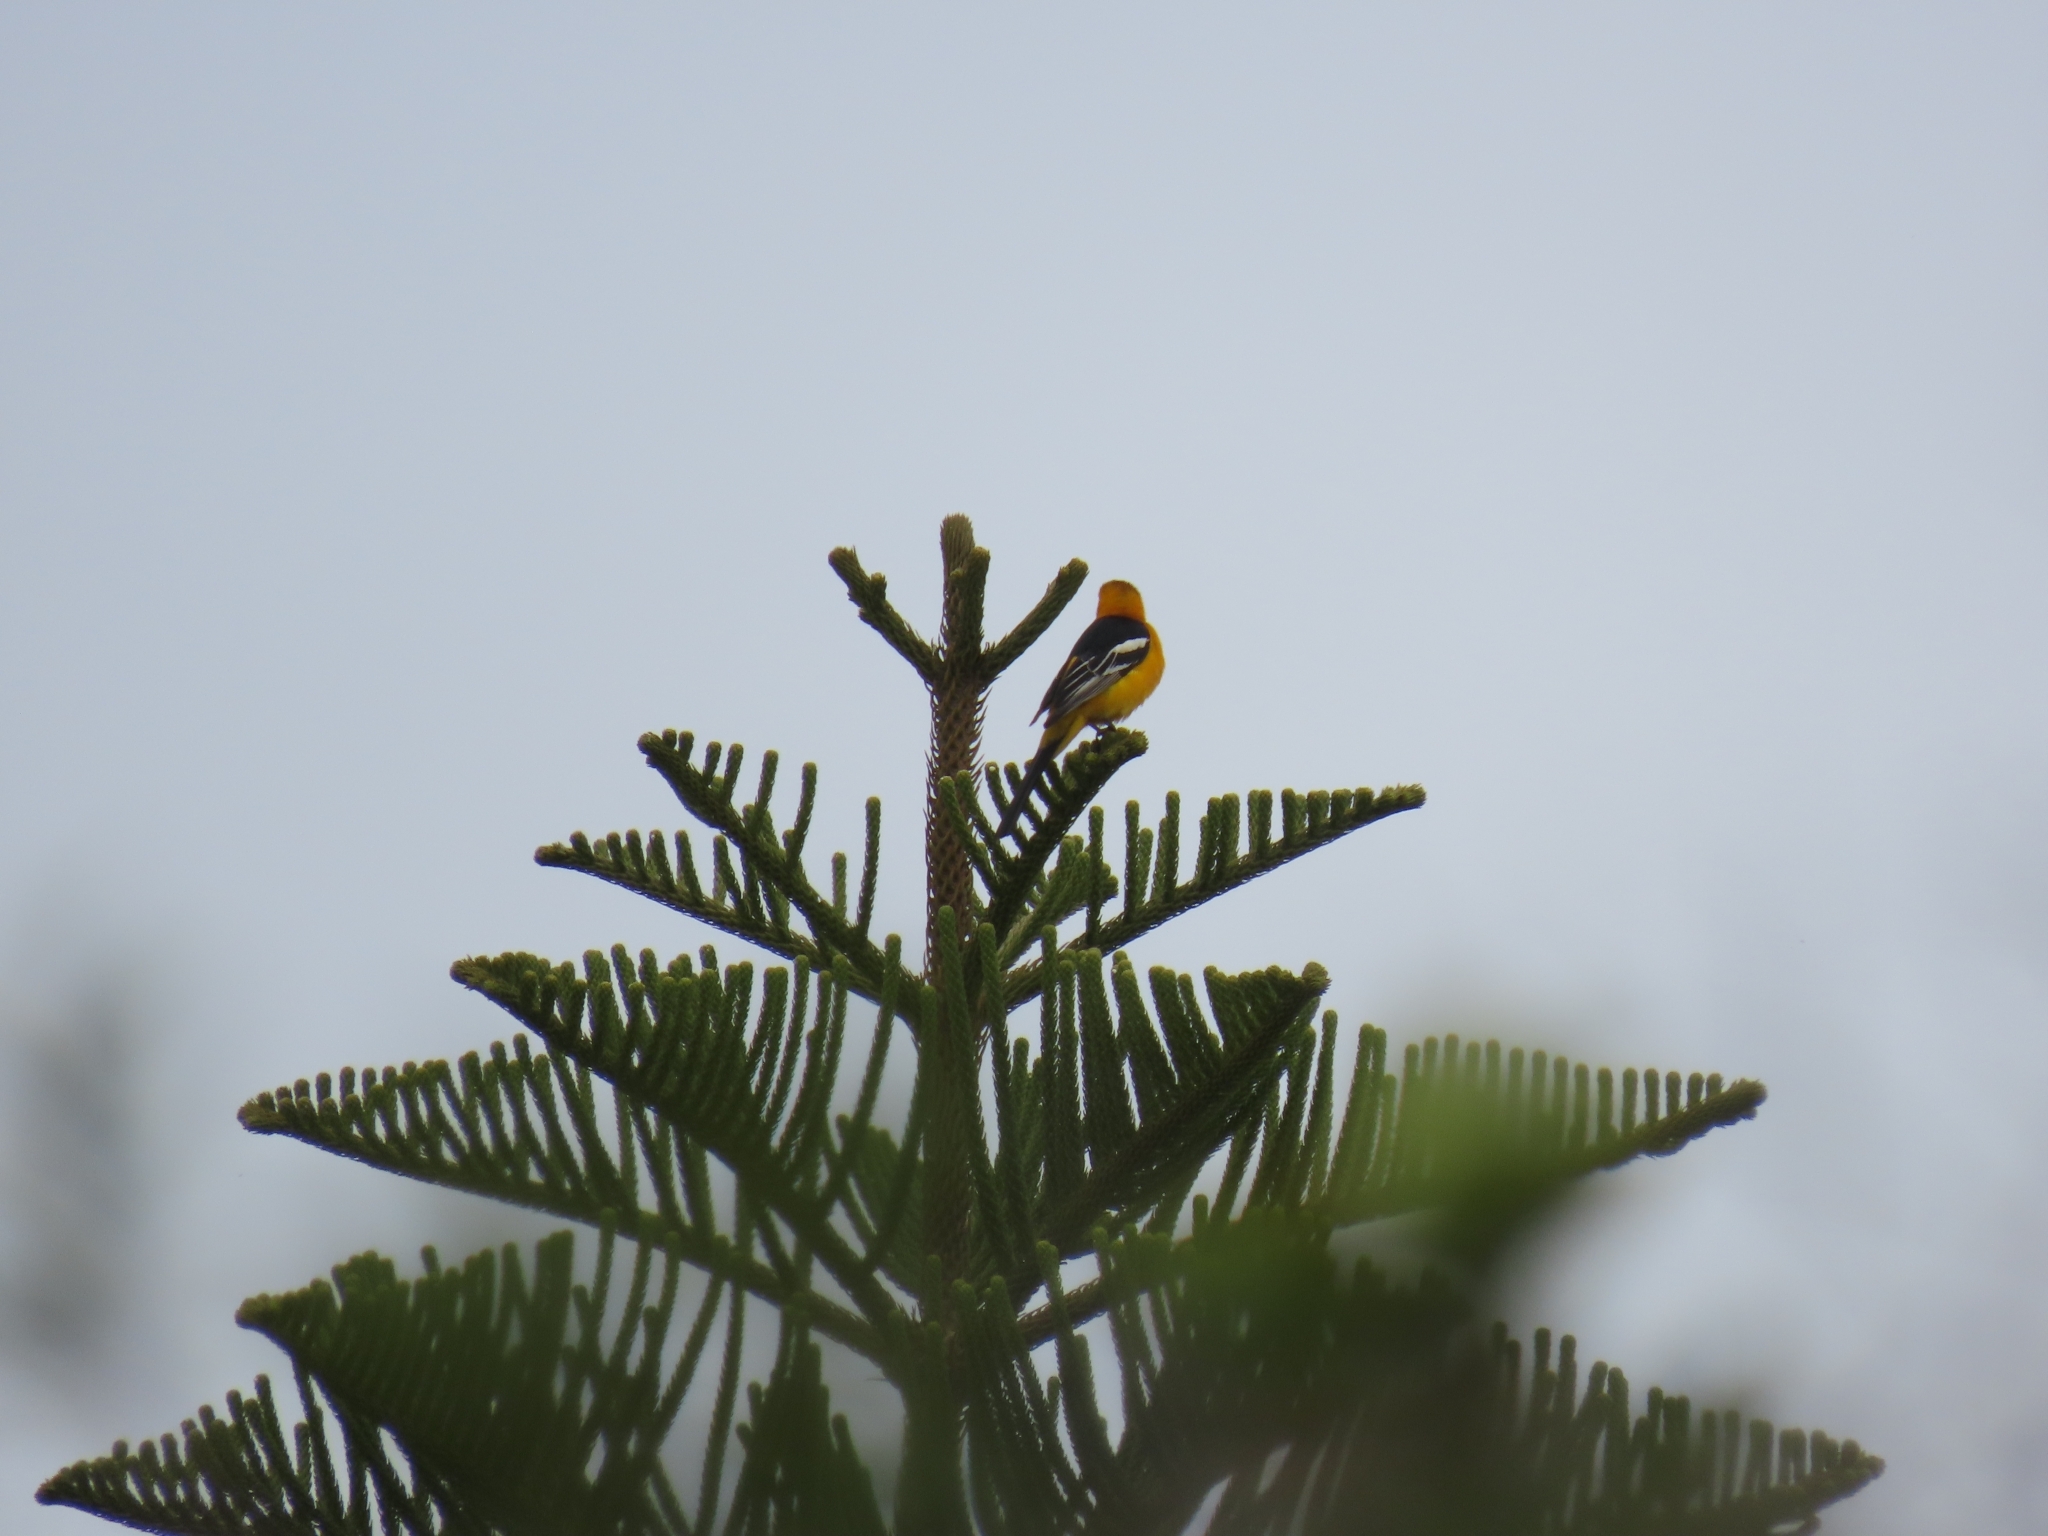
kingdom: Animalia
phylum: Chordata
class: Aves
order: Passeriformes
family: Icteridae
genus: Icterus
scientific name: Icterus cucullatus
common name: Hooded oriole
